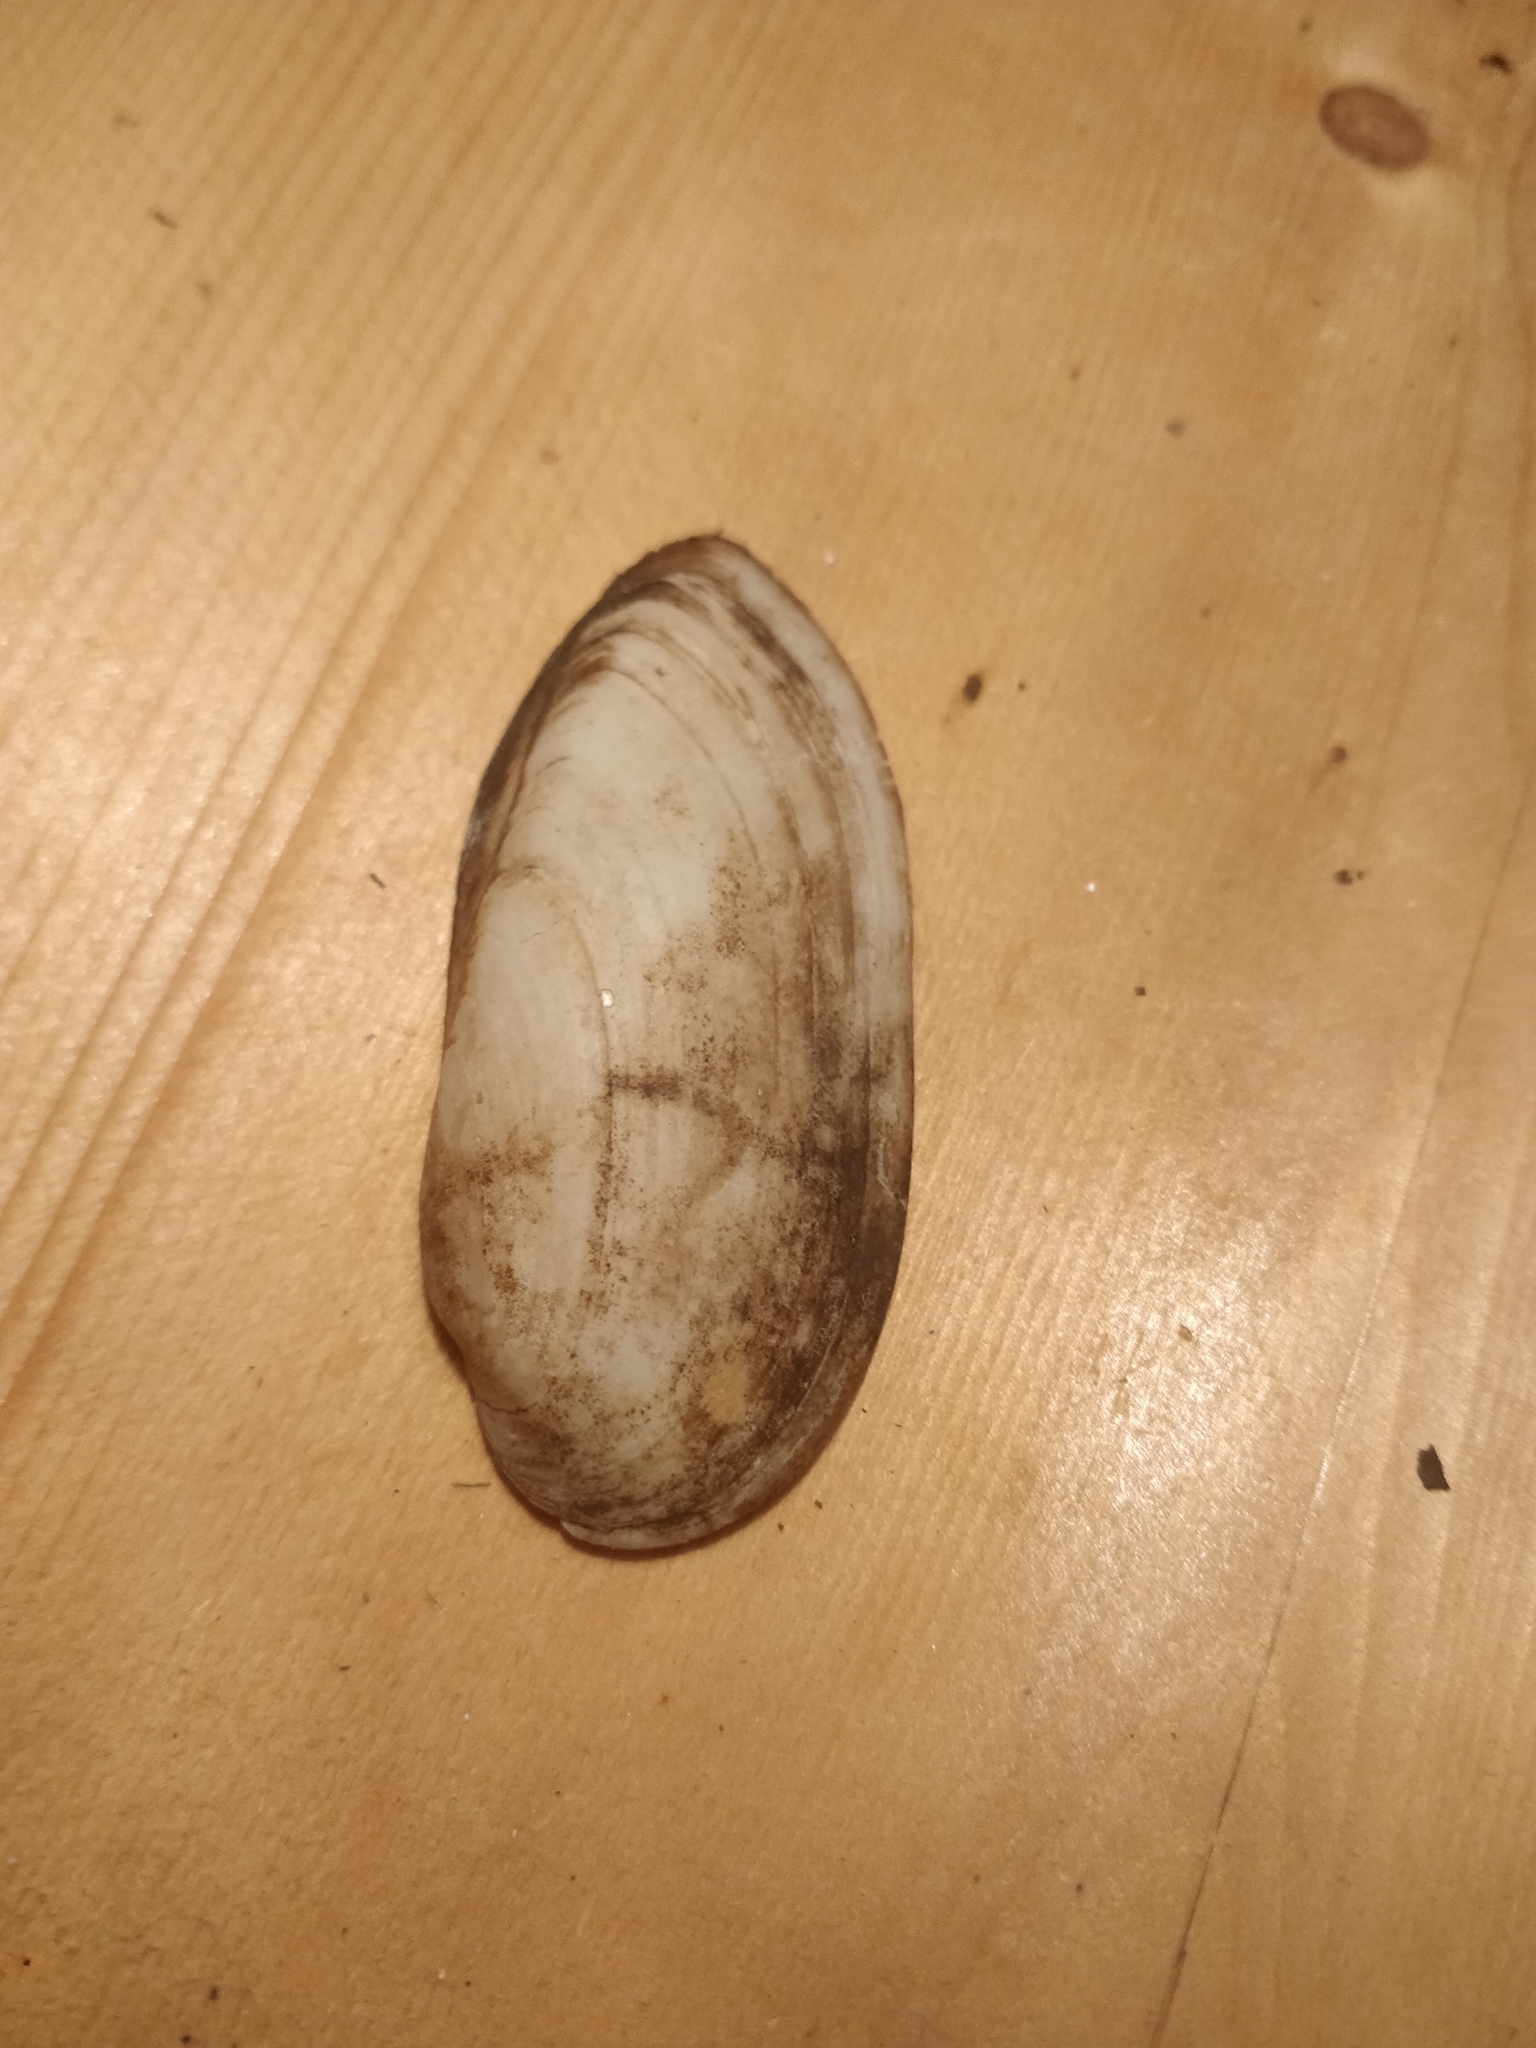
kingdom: Animalia
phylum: Mollusca
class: Bivalvia
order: Unionida
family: Unionidae
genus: Lampsilis
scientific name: Lampsilis teres
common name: Yellow sandshell
